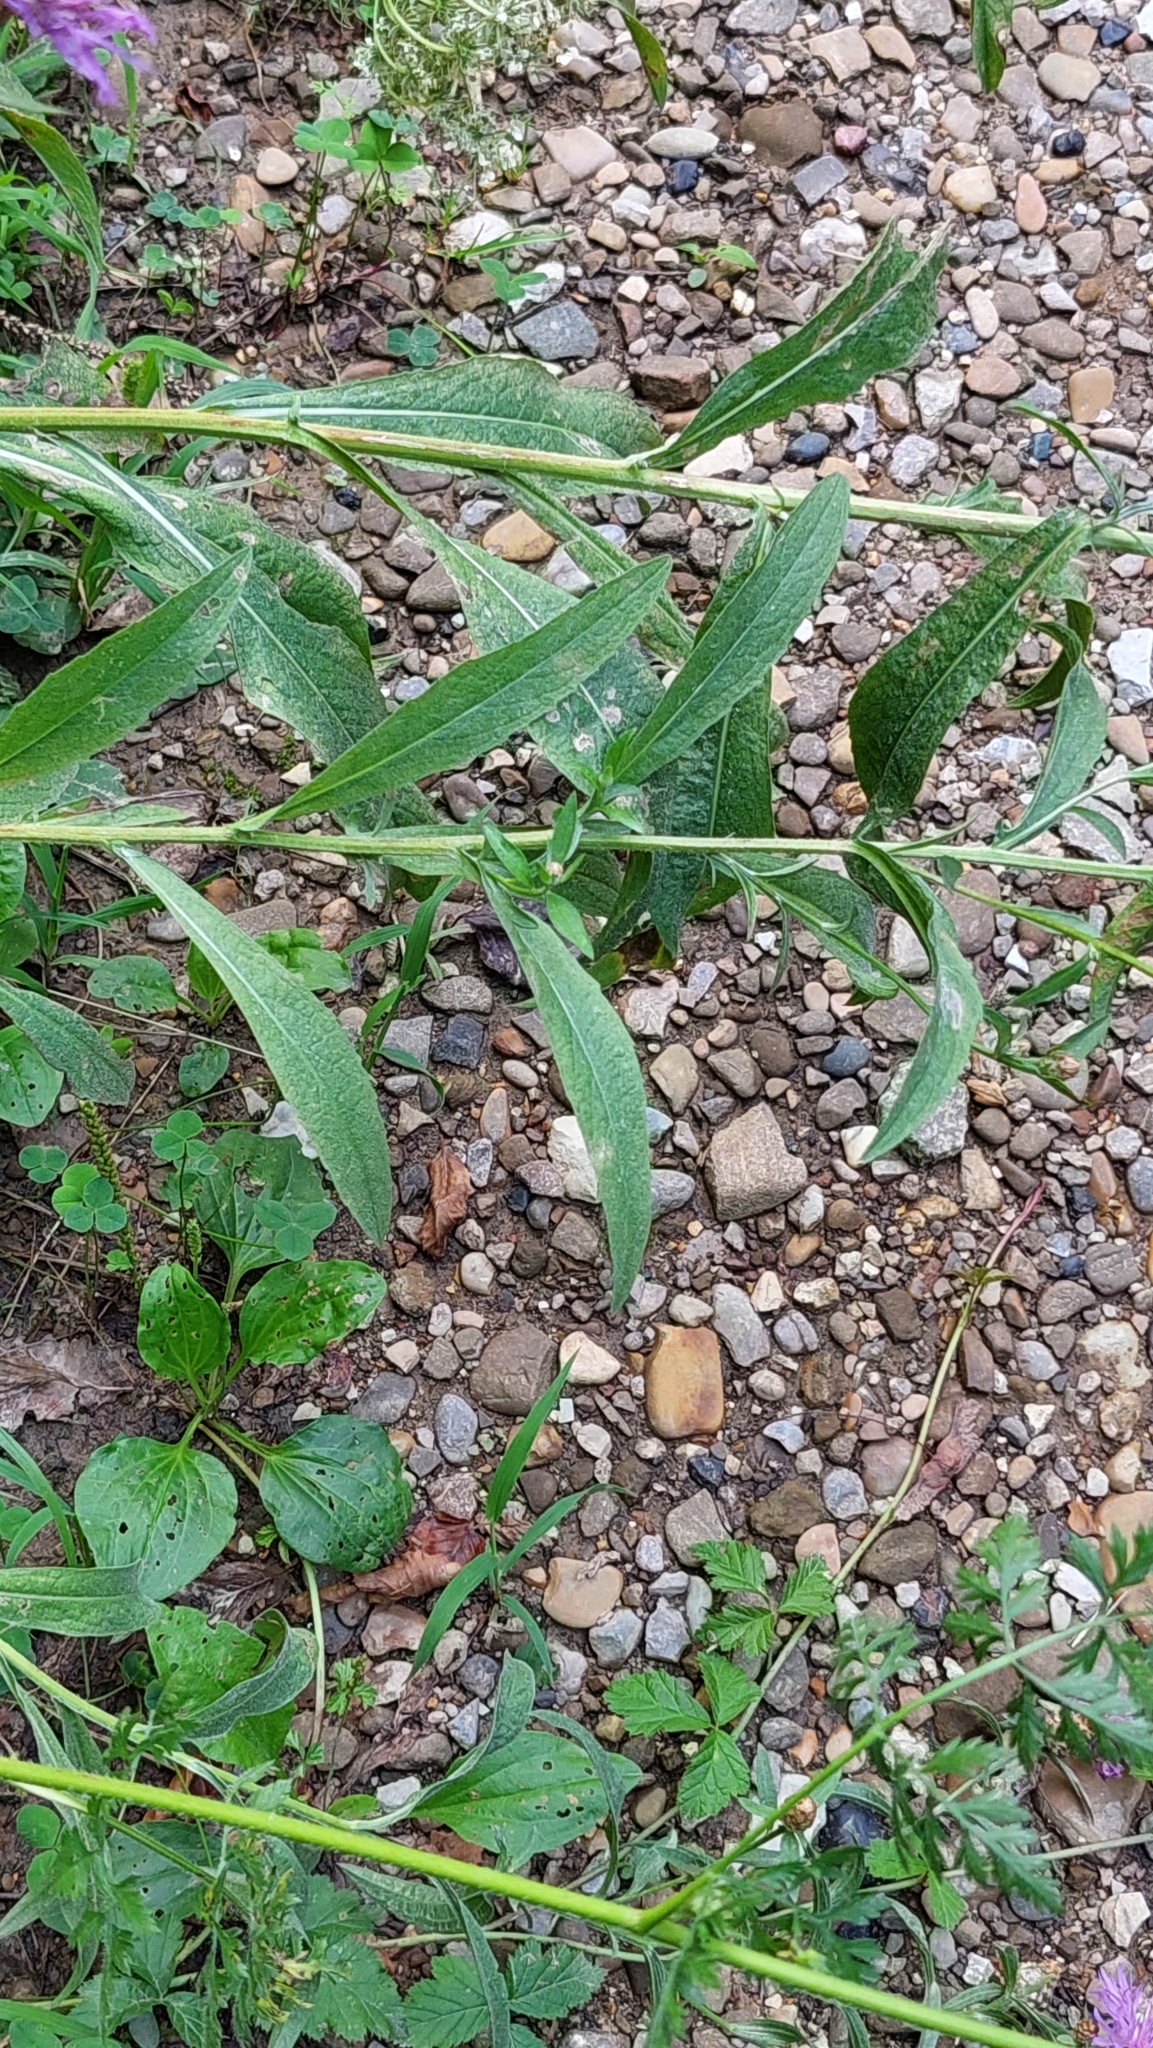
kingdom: Plantae
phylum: Tracheophyta
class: Magnoliopsida
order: Asterales
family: Asteraceae
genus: Centaurea
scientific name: Centaurea jacea
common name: Brown knapweed
